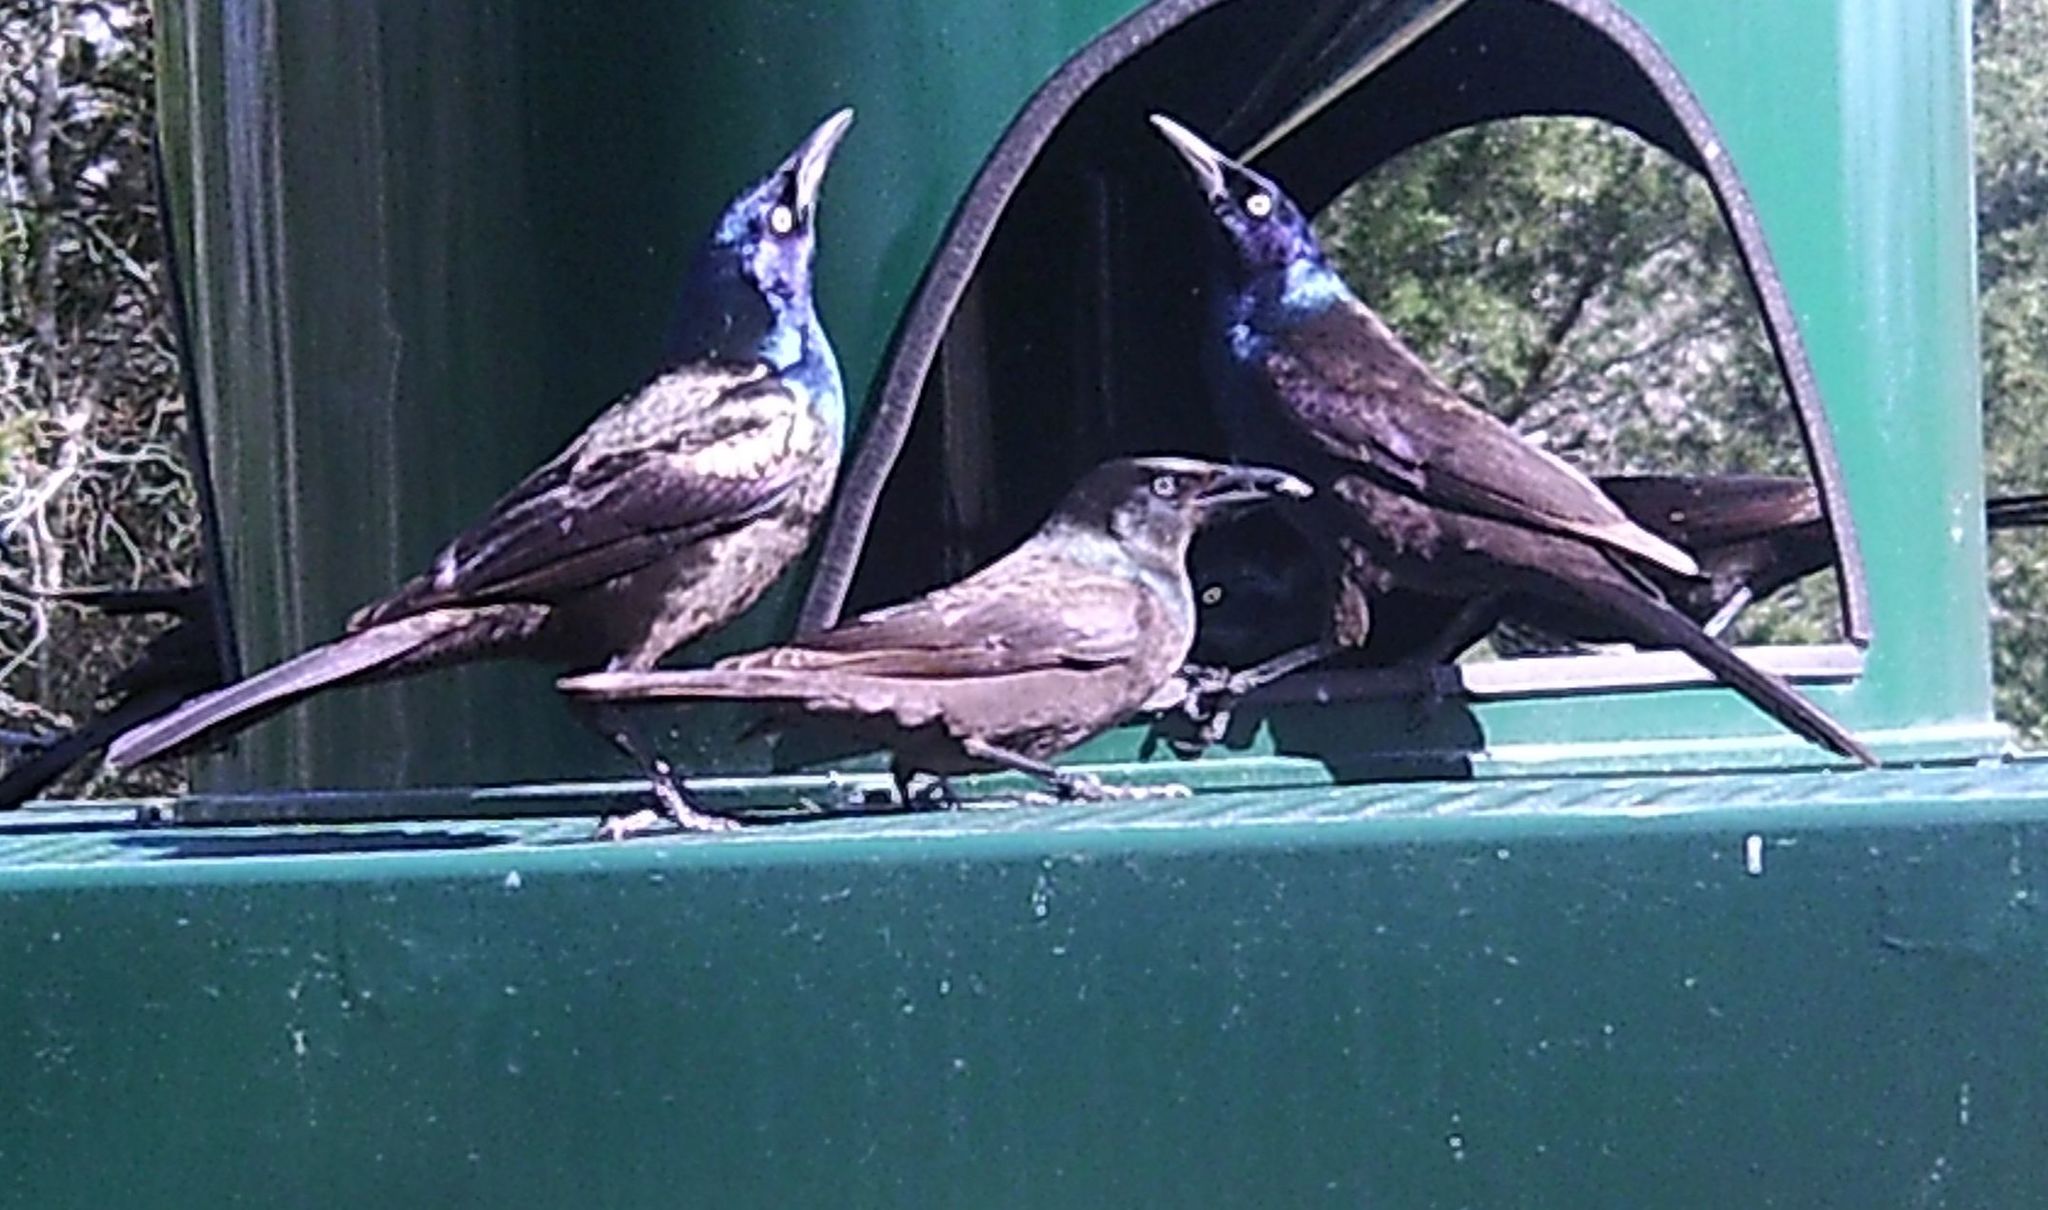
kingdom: Animalia
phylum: Chordata
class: Aves
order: Passeriformes
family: Icteridae
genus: Quiscalus
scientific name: Quiscalus quiscula
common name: Common grackle
